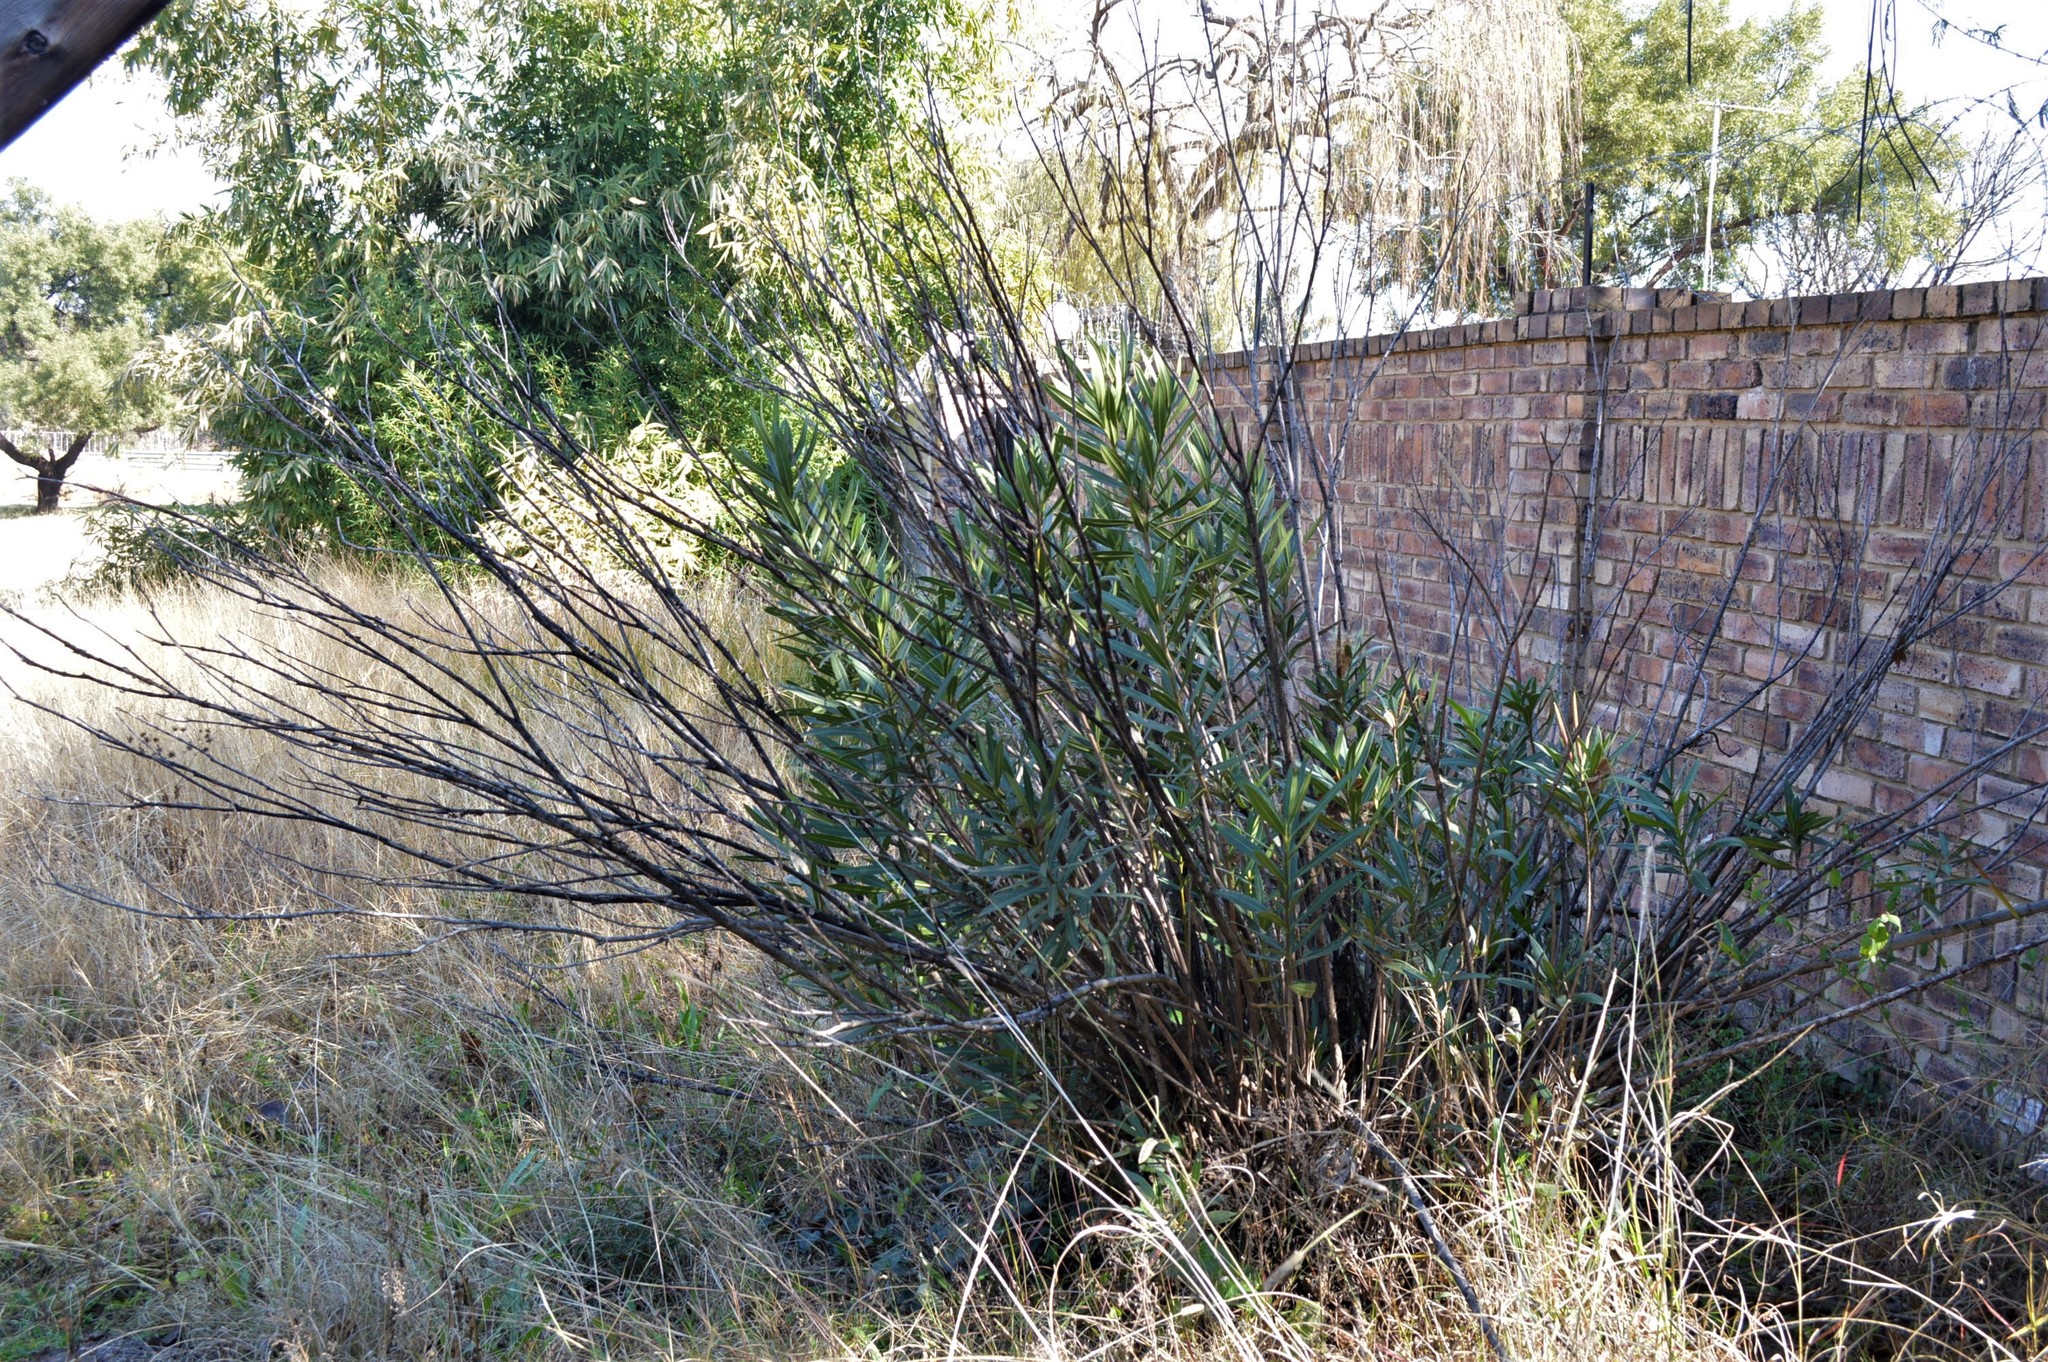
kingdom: Plantae
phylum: Tracheophyta
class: Magnoliopsida
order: Gentianales
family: Apocynaceae
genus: Nerium
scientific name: Nerium oleander
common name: Oleander
